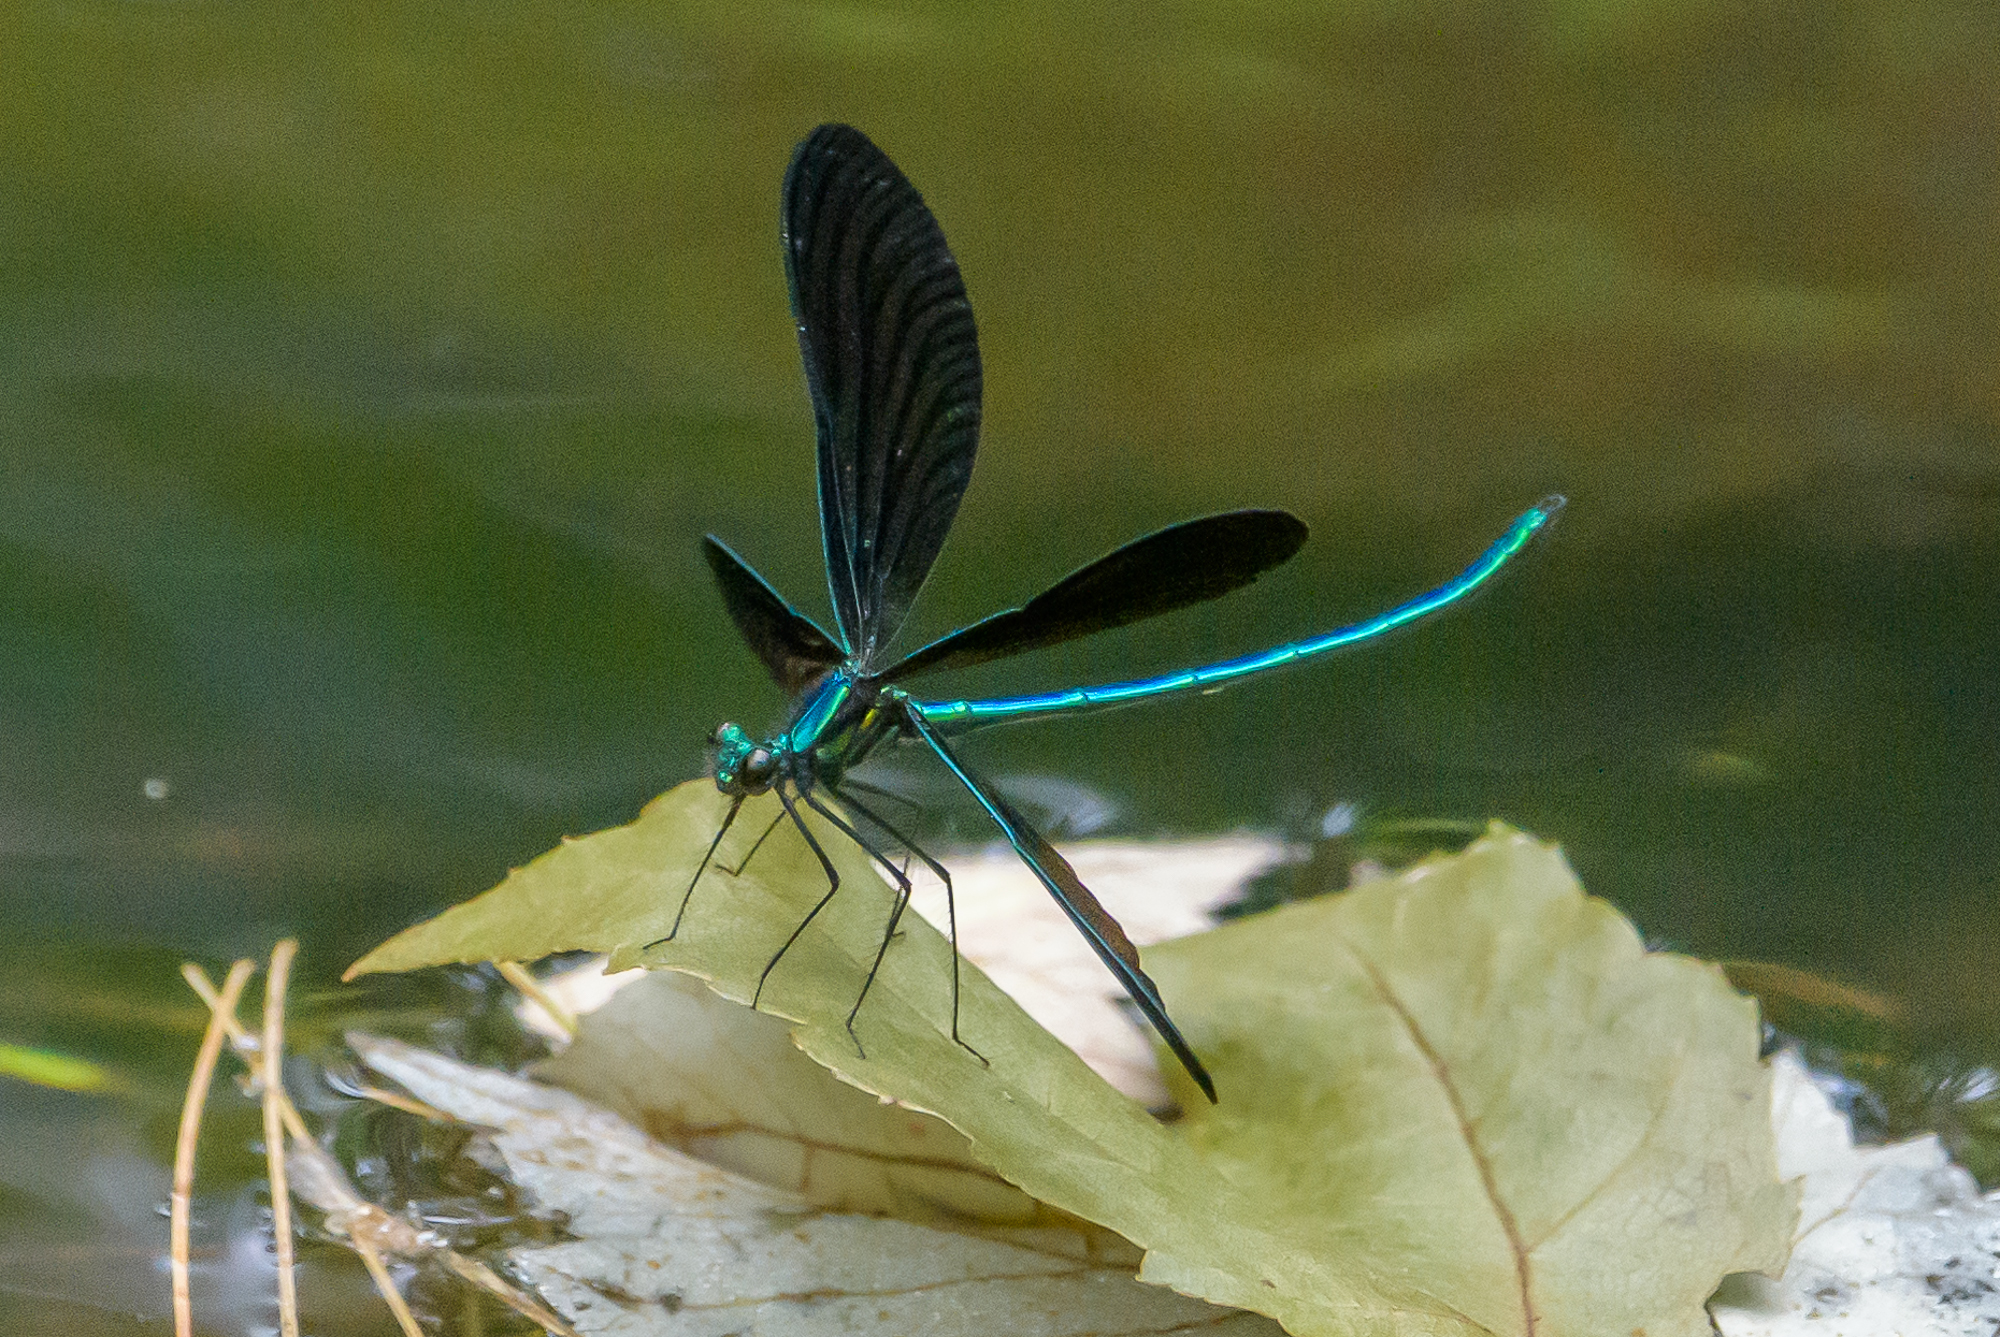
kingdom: Animalia
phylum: Arthropoda
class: Insecta
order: Odonata
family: Calopterygidae
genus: Calopteryx
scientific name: Calopteryx maculata
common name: Ebony jewelwing
